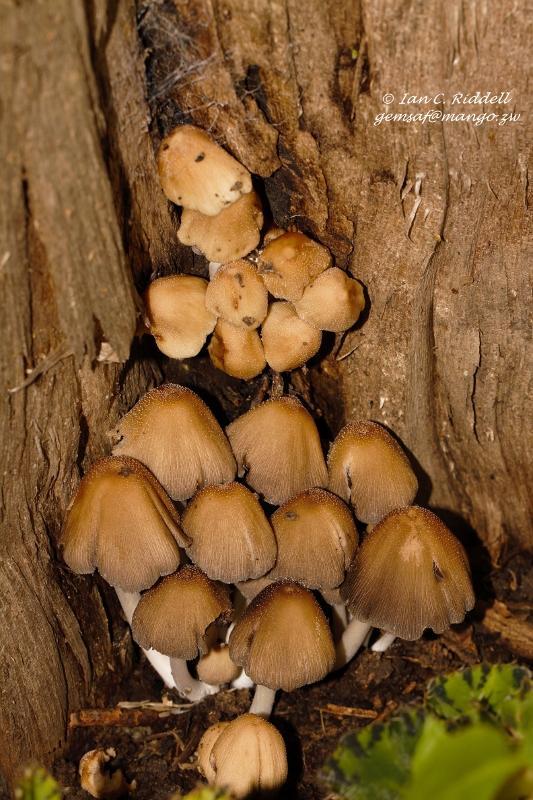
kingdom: Fungi
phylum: Basidiomycota
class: Agaricomycetes
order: Agaricales
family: Psathyrellaceae
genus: Coprinellus
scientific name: Coprinellus micaceus
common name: Glistening ink-cap
